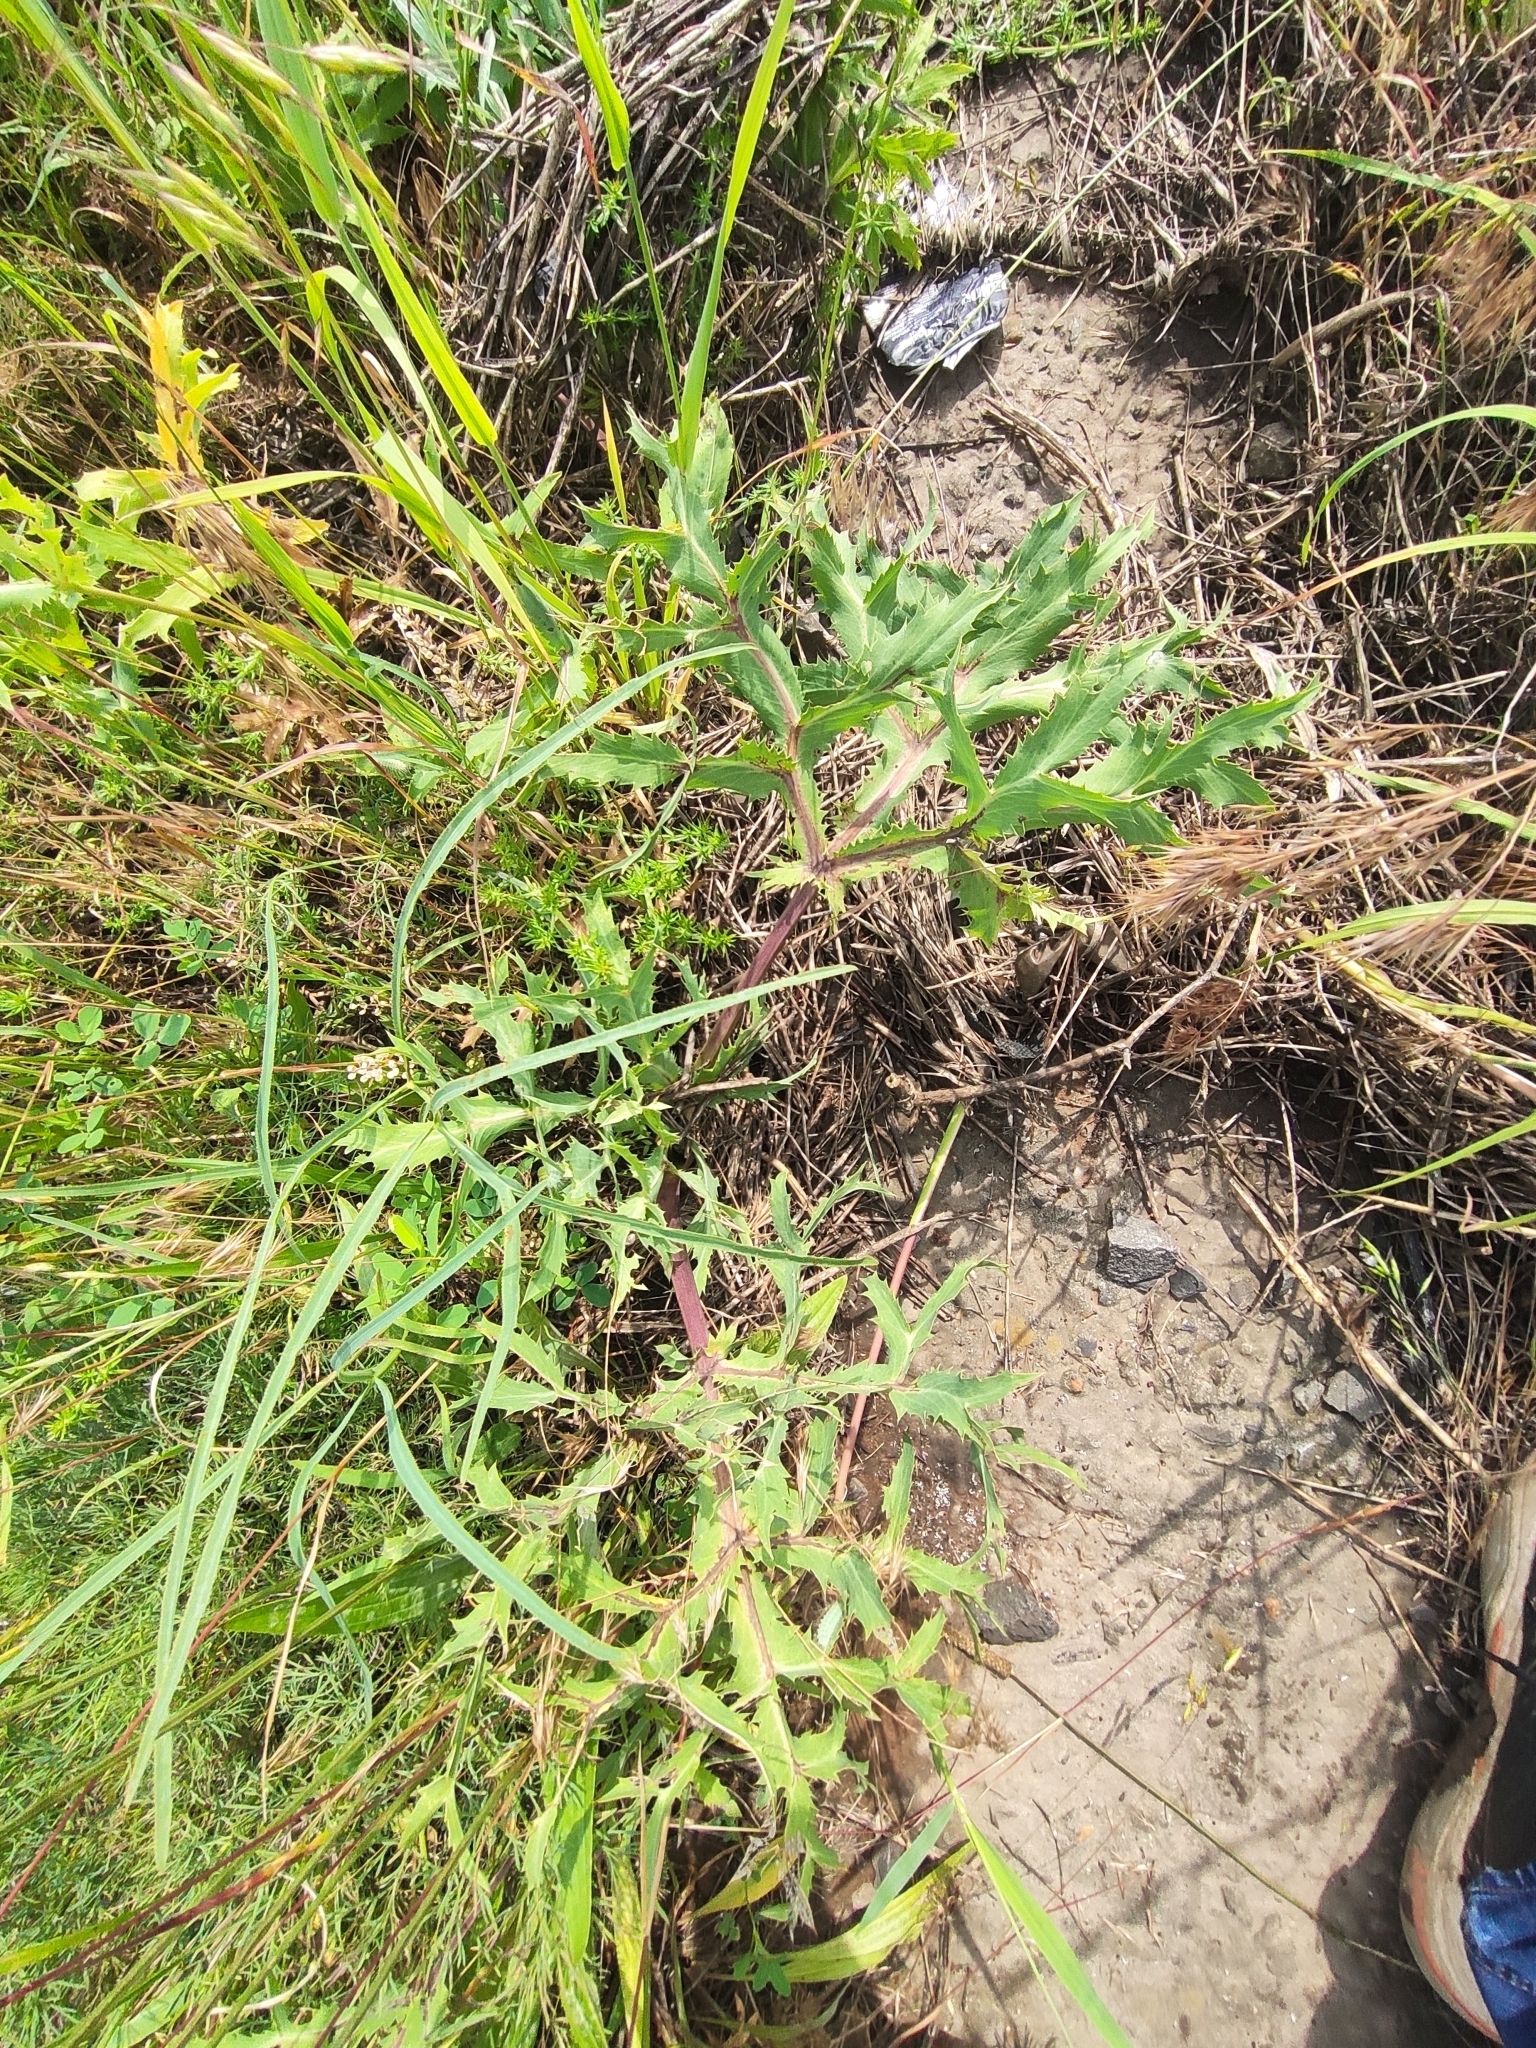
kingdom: Plantae
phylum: Tracheophyta
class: Magnoliopsida
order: Apiales
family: Apiaceae
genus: Eryngium
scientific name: Eryngium campestre
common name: Field eryngo
